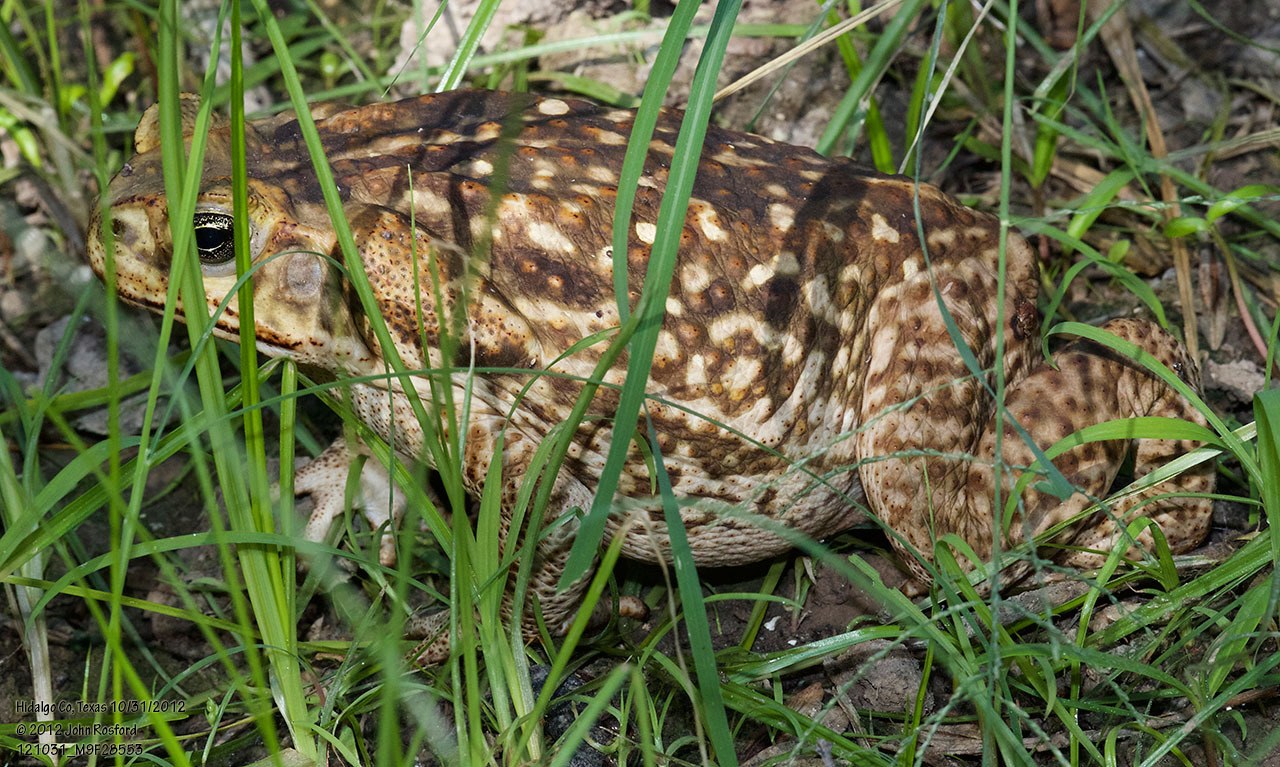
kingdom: Animalia
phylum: Chordata
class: Amphibia
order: Anura
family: Bufonidae
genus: Rhinella
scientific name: Rhinella horribilis
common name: Mesoamerican cane toad
